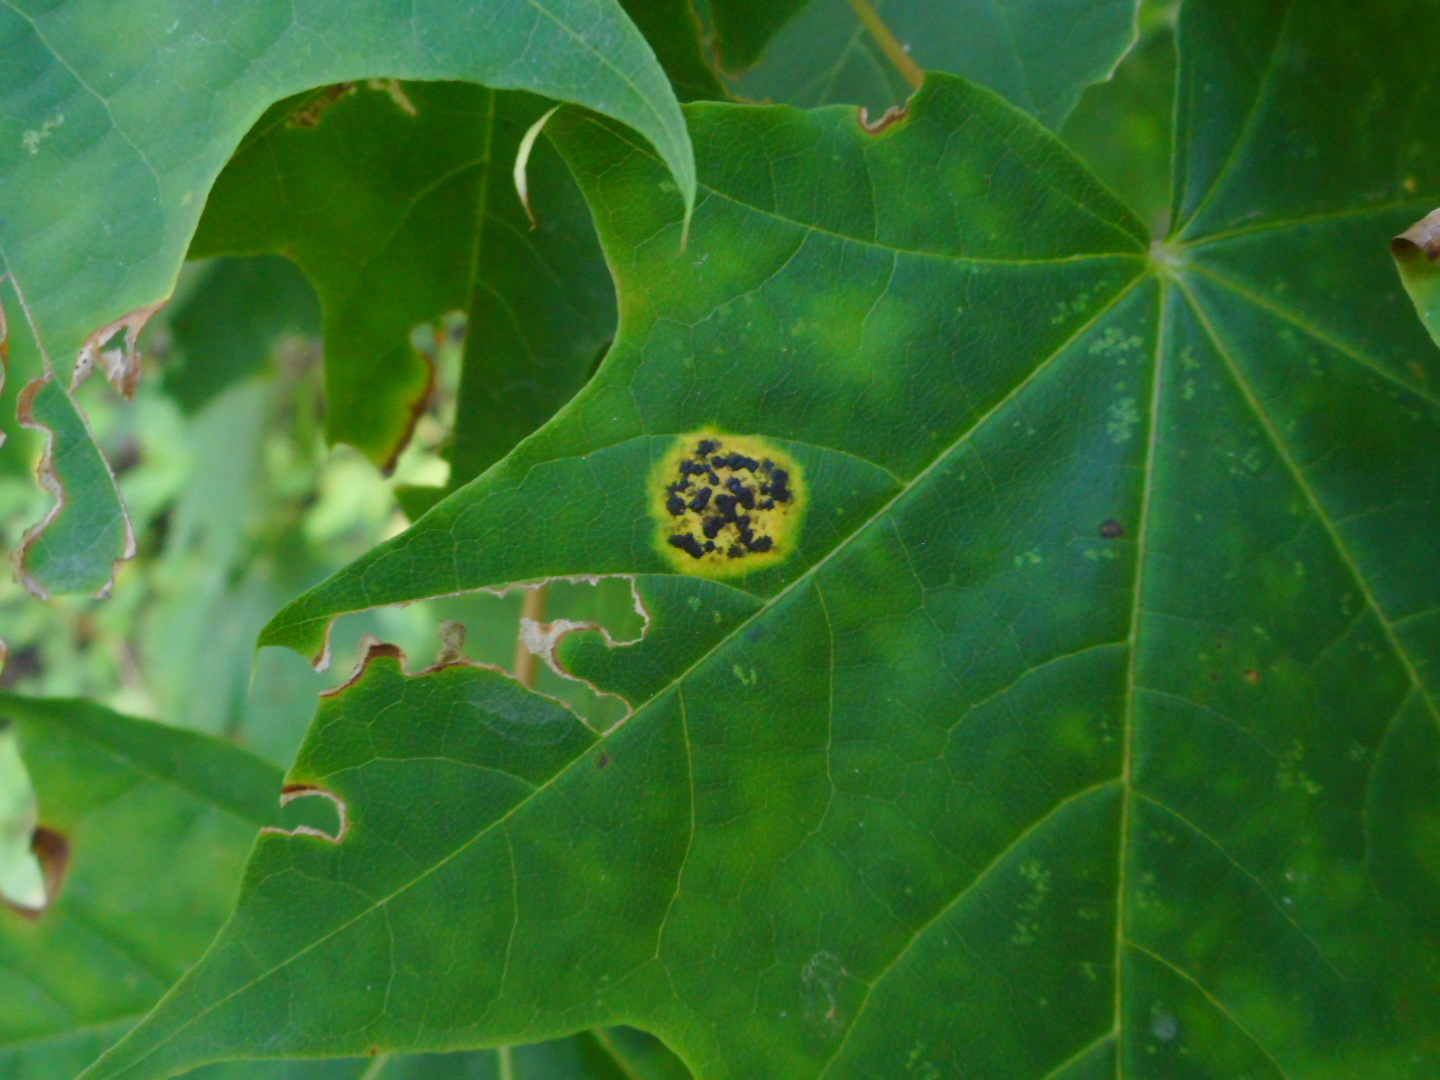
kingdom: Fungi
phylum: Ascomycota
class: Leotiomycetes
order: Rhytismatales
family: Rhytismataceae
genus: Rhytisma
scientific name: Rhytisma acerinum
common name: European tar spot
